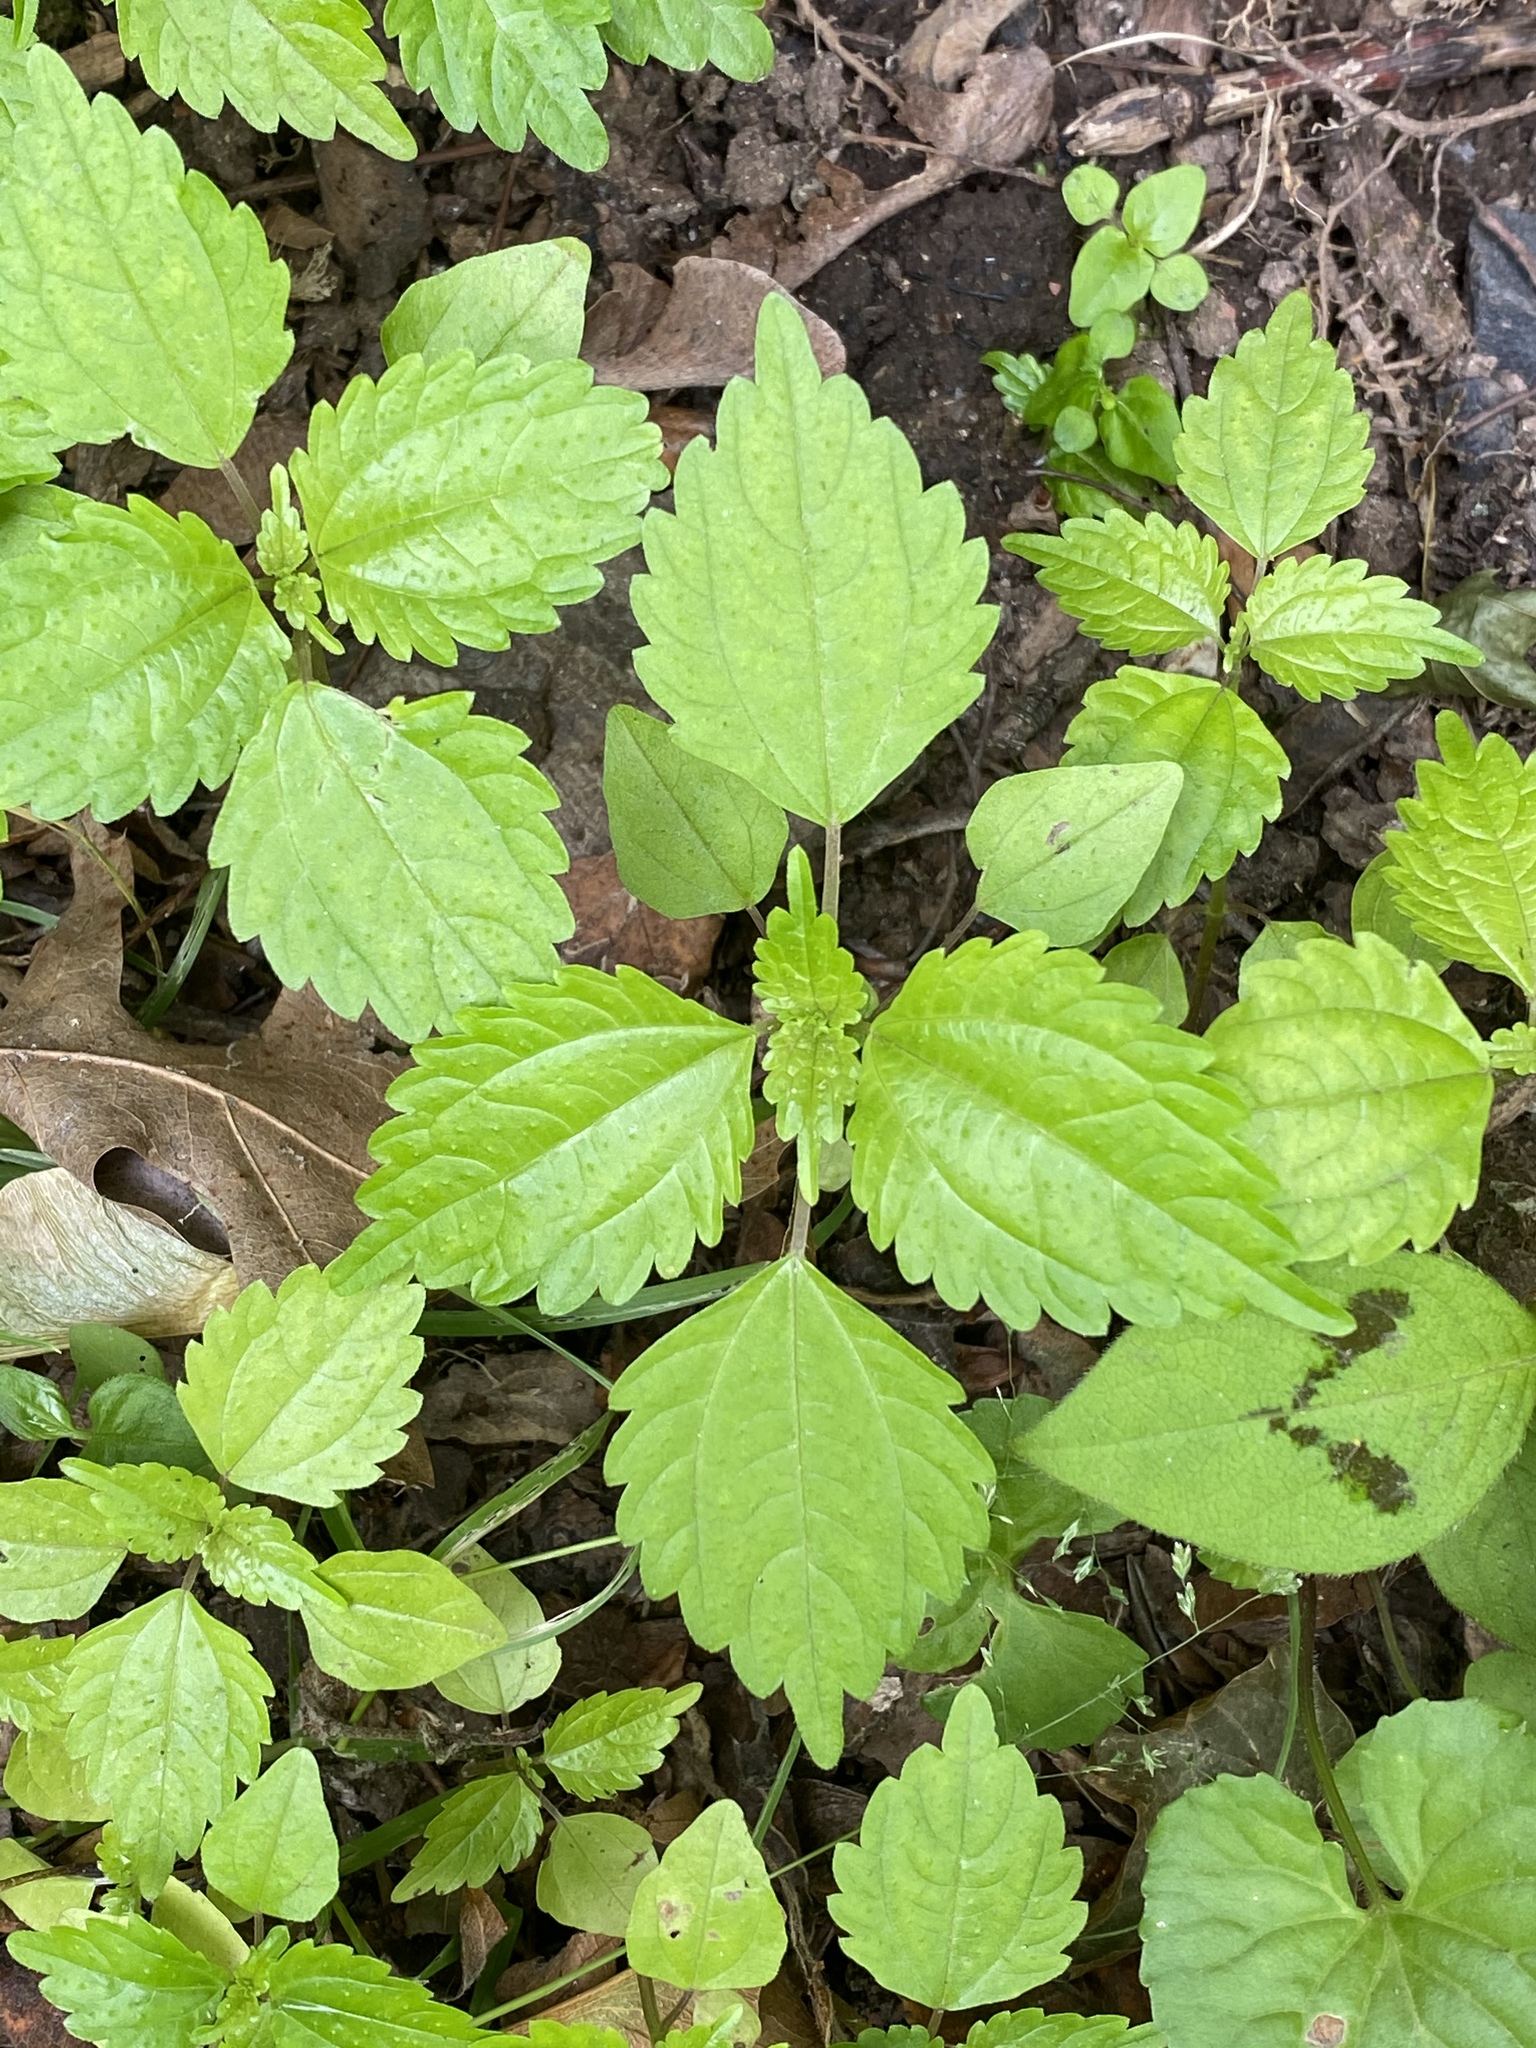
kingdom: Plantae
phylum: Tracheophyta
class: Magnoliopsida
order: Rosales
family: Urticaceae
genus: Pilea
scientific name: Pilea pumila
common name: Clearweed
